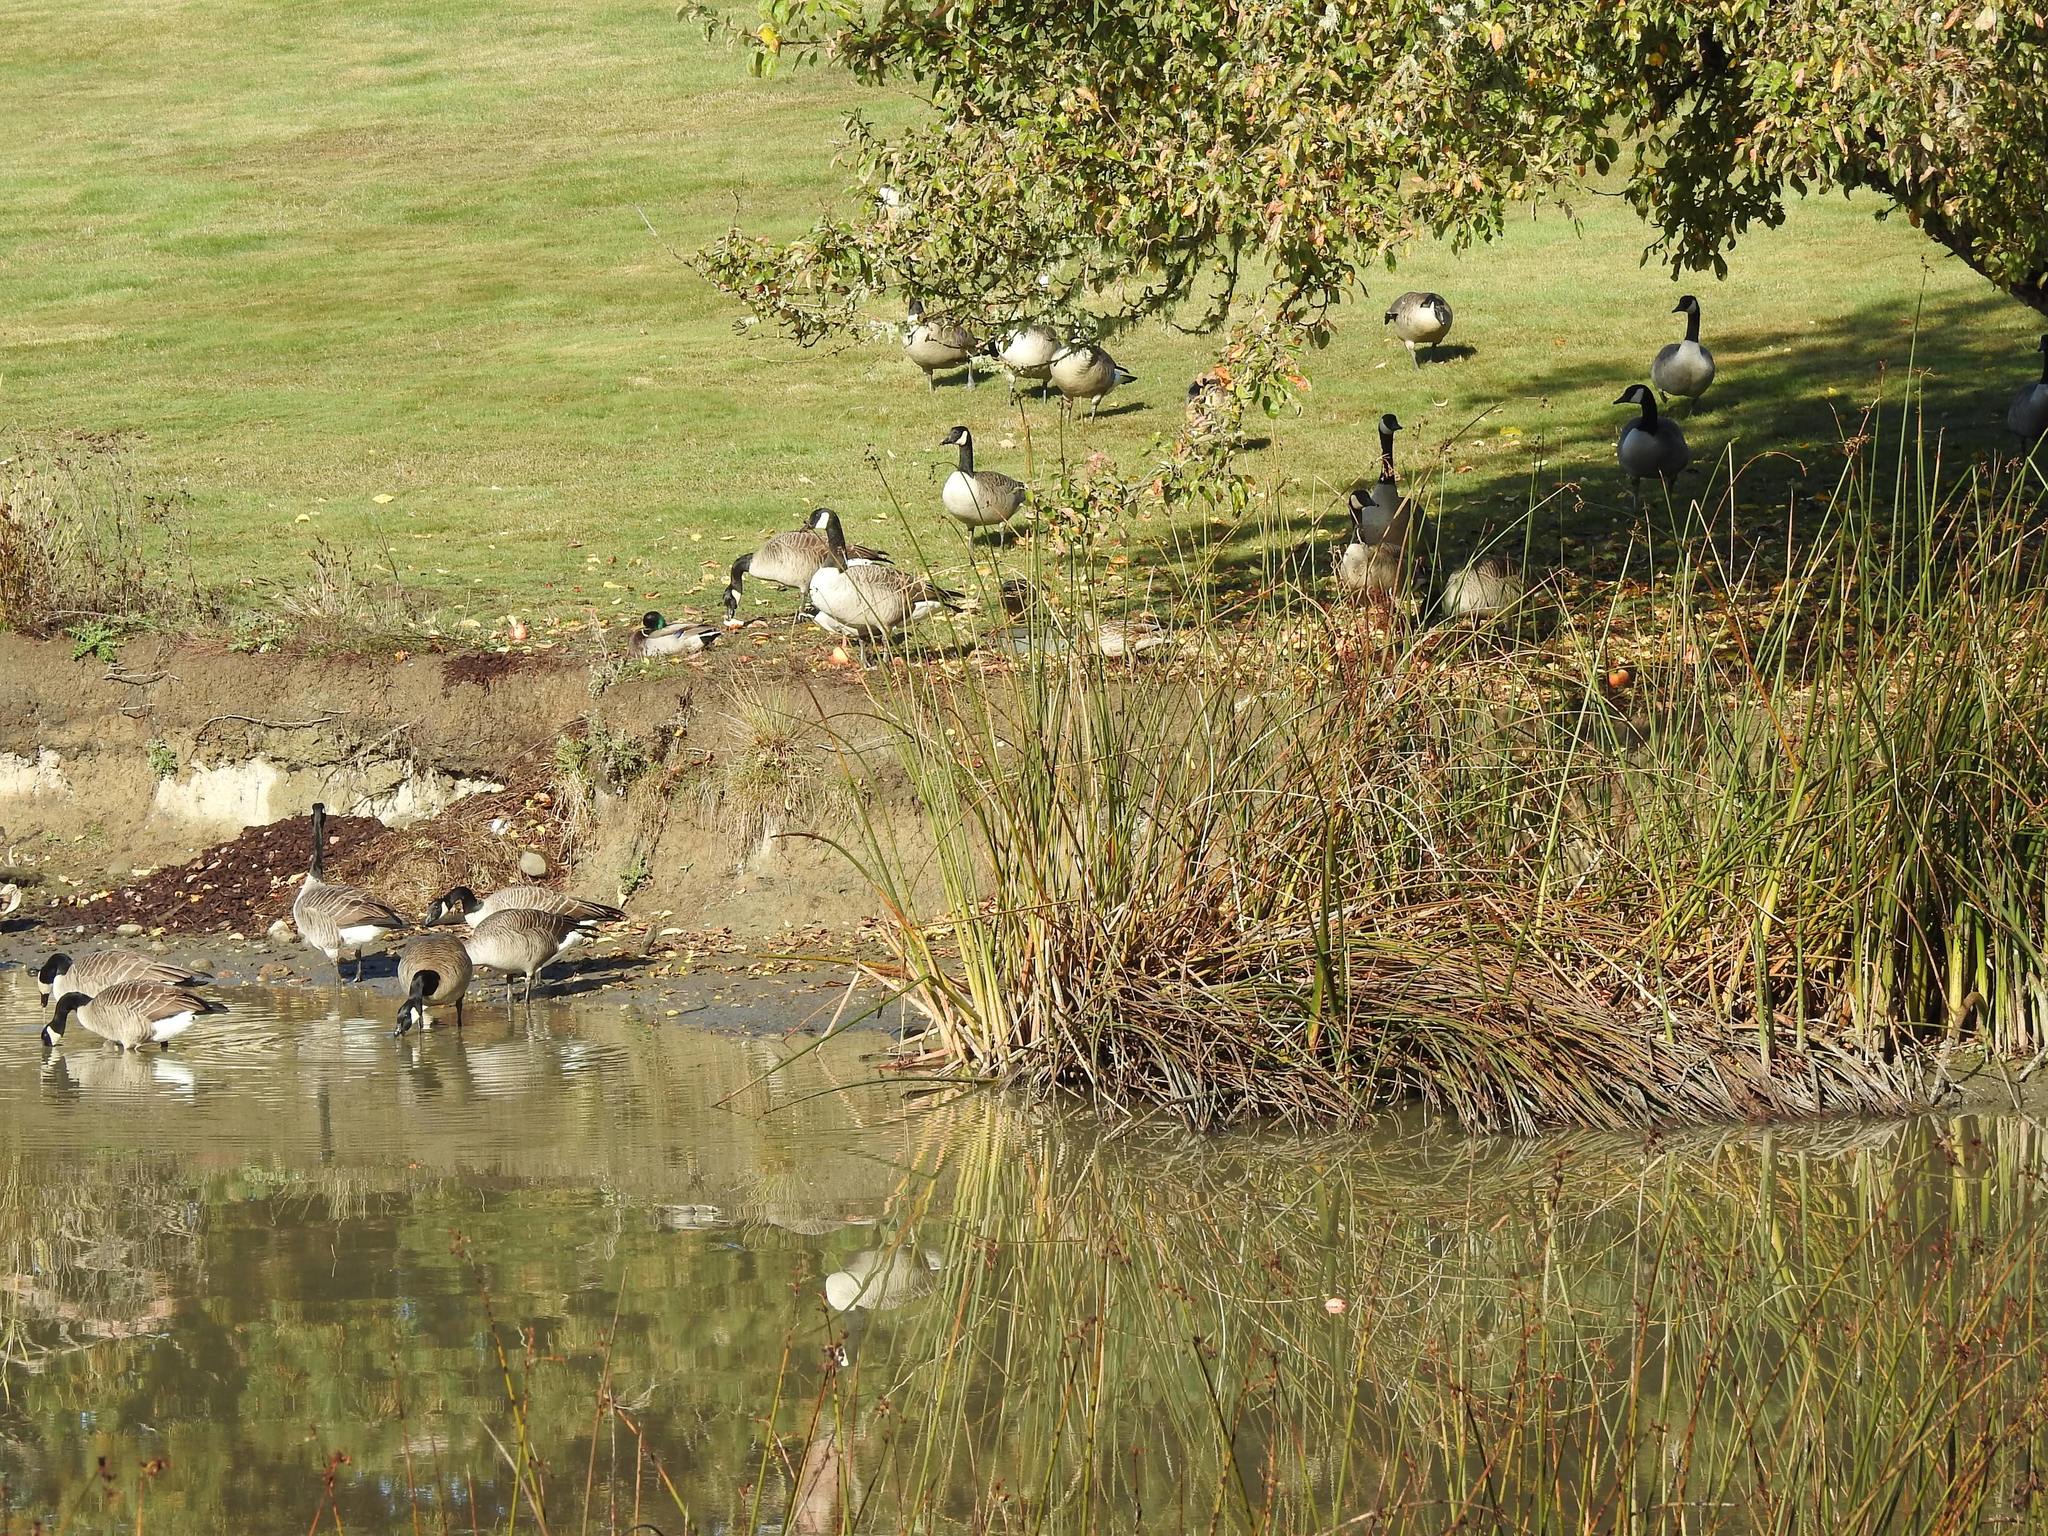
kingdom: Animalia
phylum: Chordata
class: Aves
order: Anseriformes
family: Anatidae
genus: Branta
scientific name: Branta canadensis
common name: Canada goose
